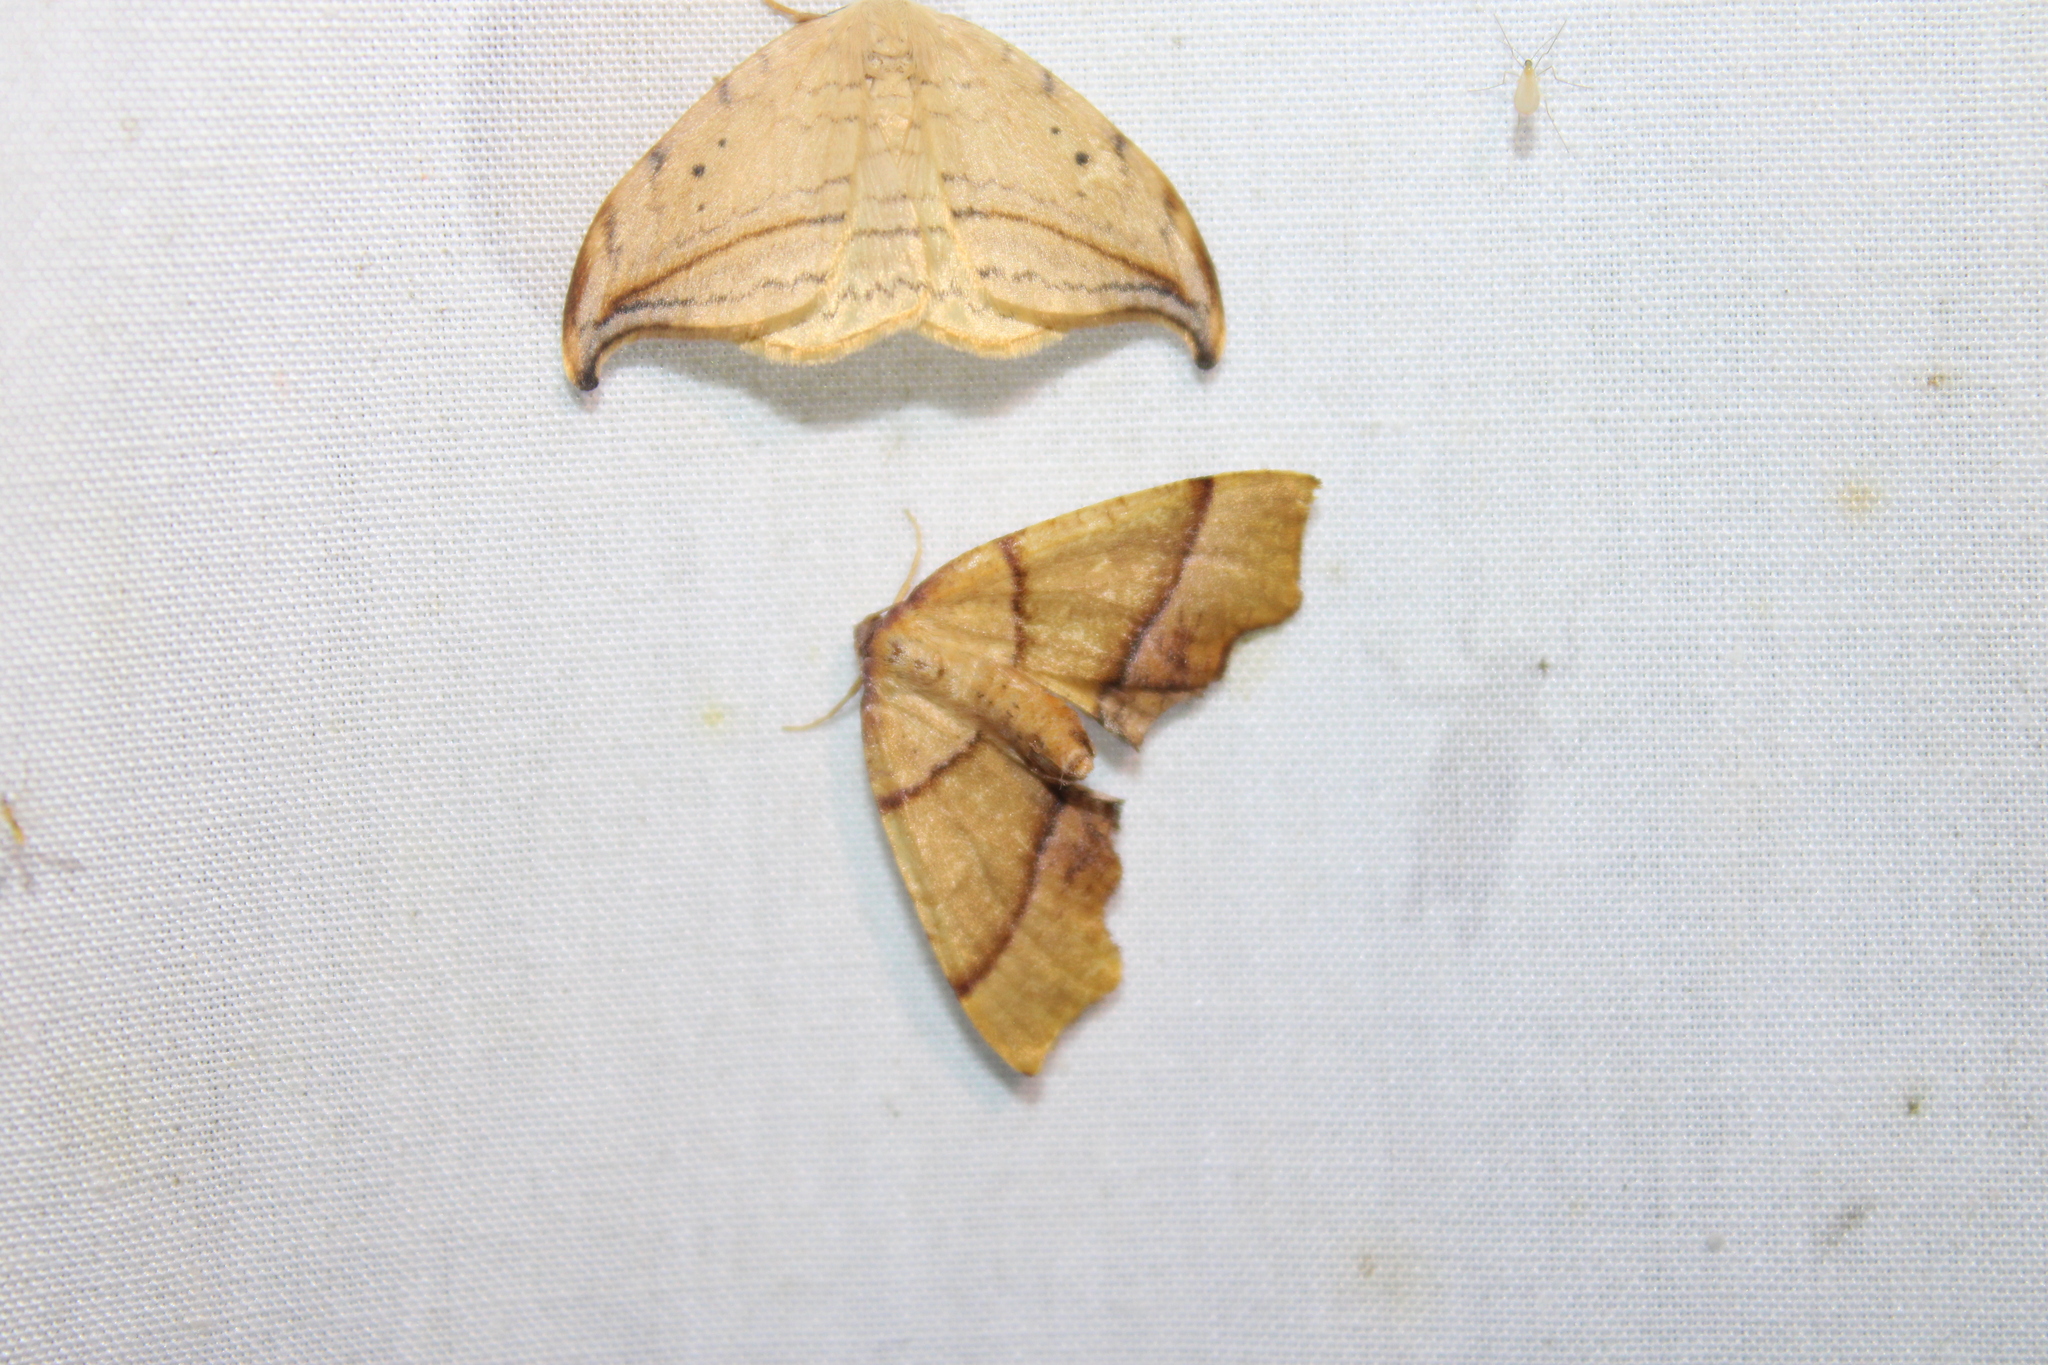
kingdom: Animalia
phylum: Arthropoda
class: Insecta
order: Lepidoptera
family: Geometridae
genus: Plagodis
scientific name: Plagodis phlogosaria
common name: Straight-lined plagodis
